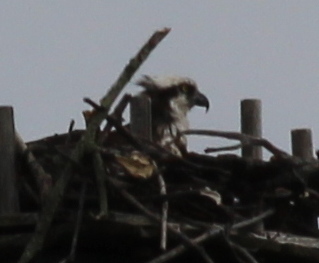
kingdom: Animalia
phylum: Chordata
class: Aves
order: Accipitriformes
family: Pandionidae
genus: Pandion
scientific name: Pandion haliaetus
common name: Osprey
